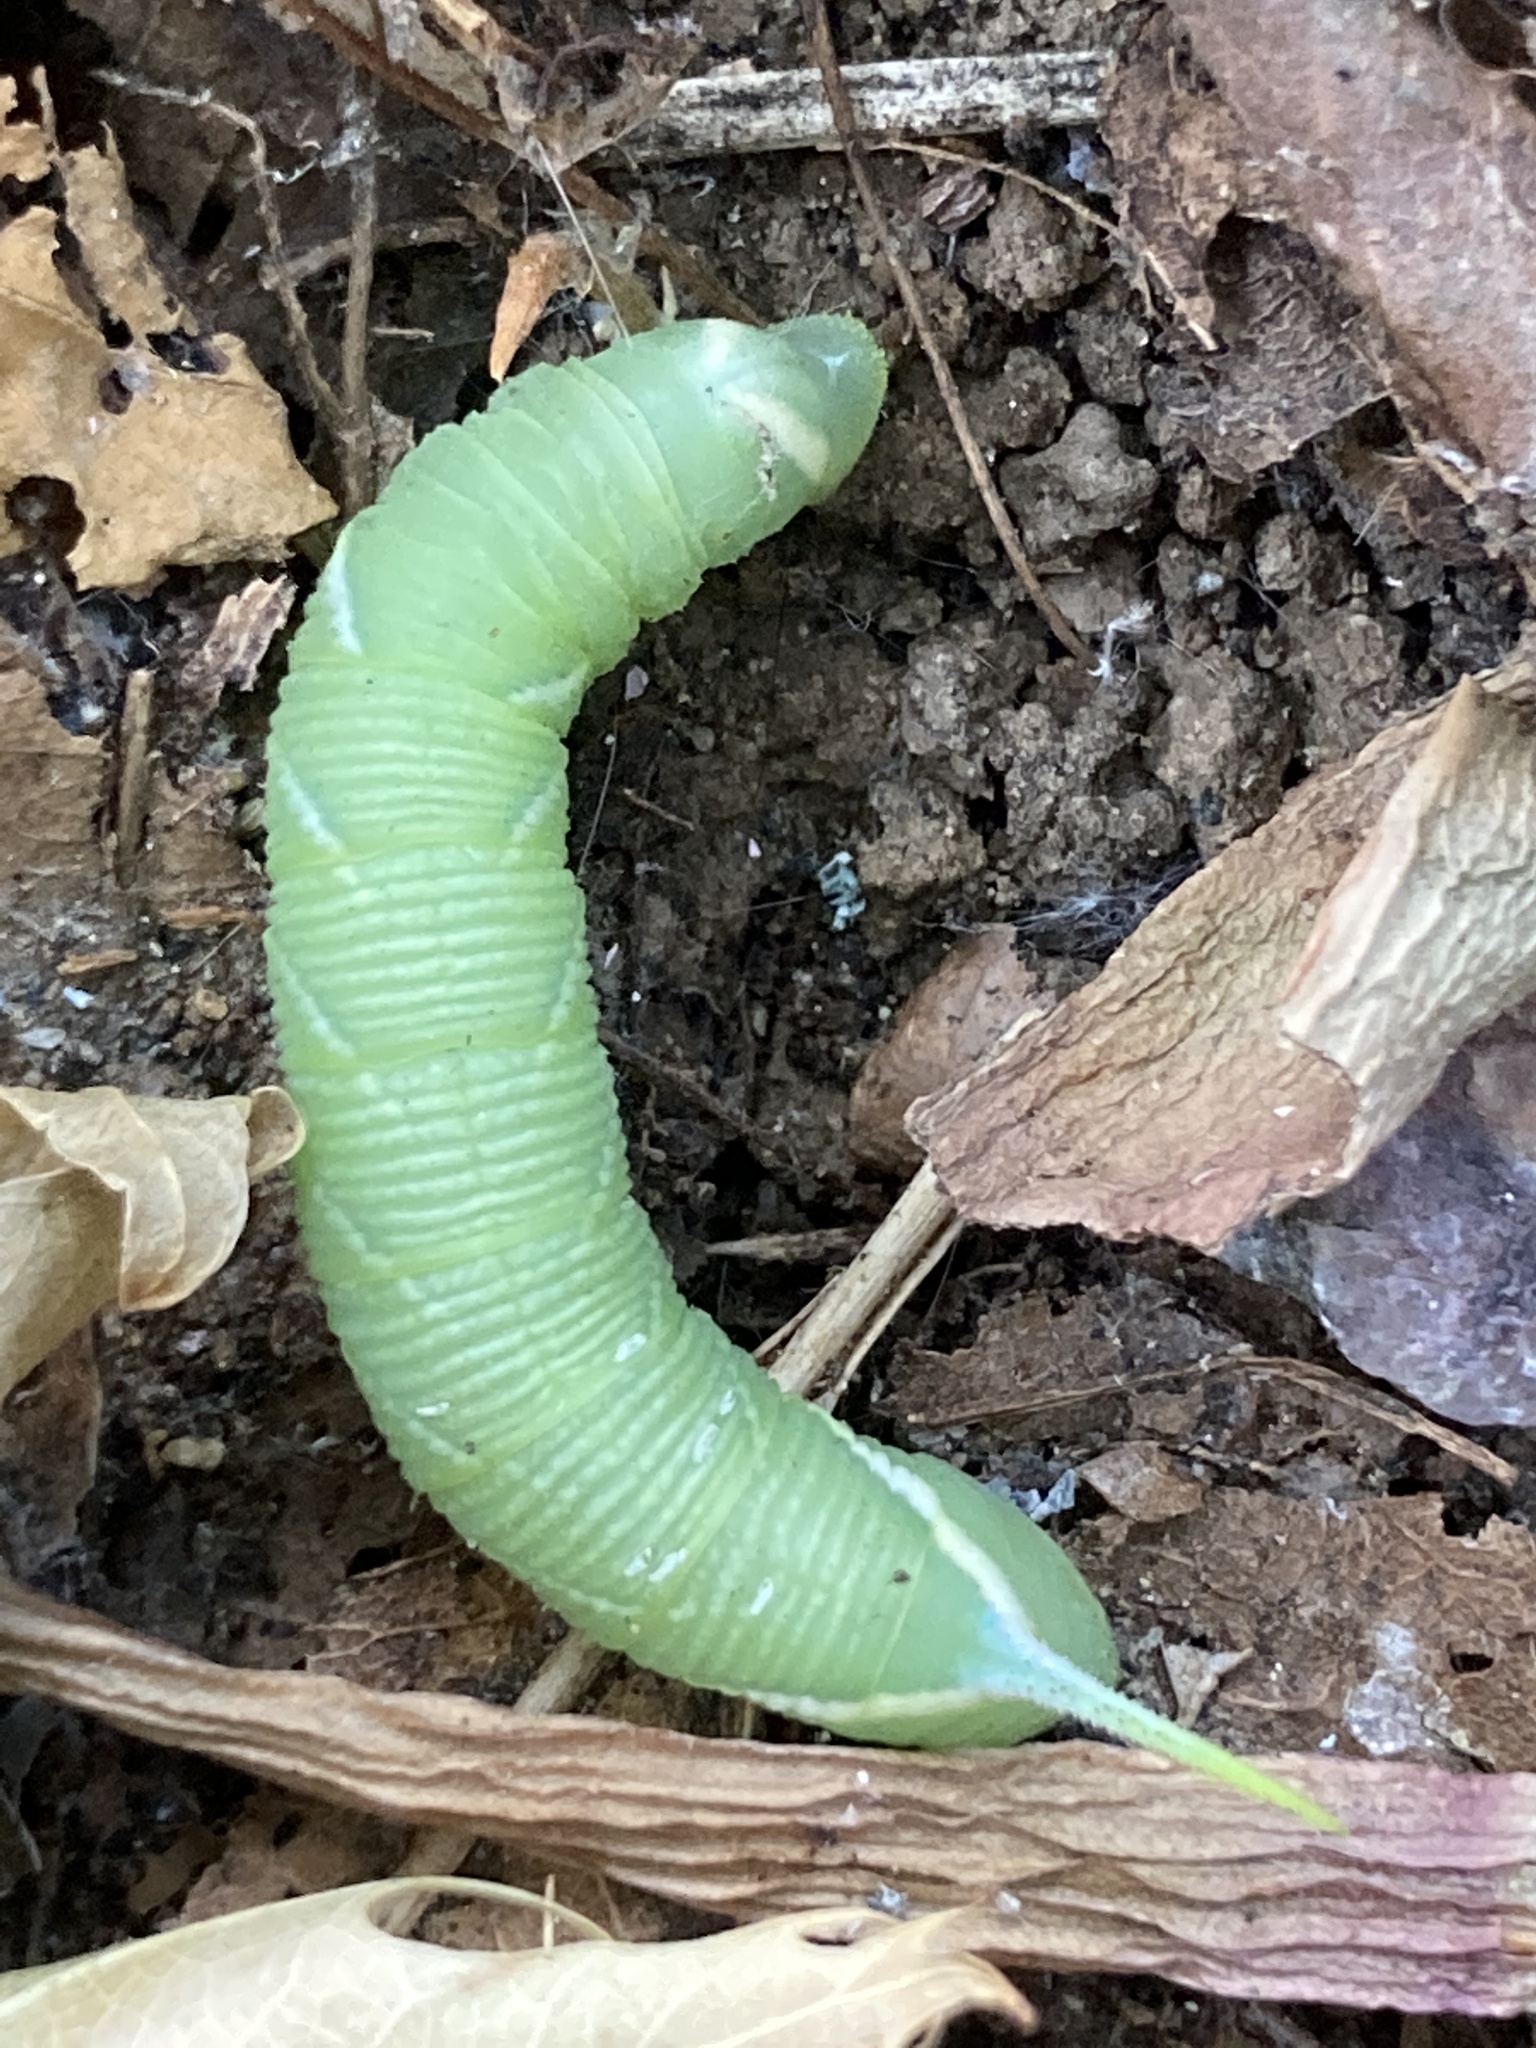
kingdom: Animalia
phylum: Arthropoda
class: Insecta
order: Lepidoptera
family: Sphingidae
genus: Ceratomia
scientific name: Ceratomia undulosa
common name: Waved sphinx
